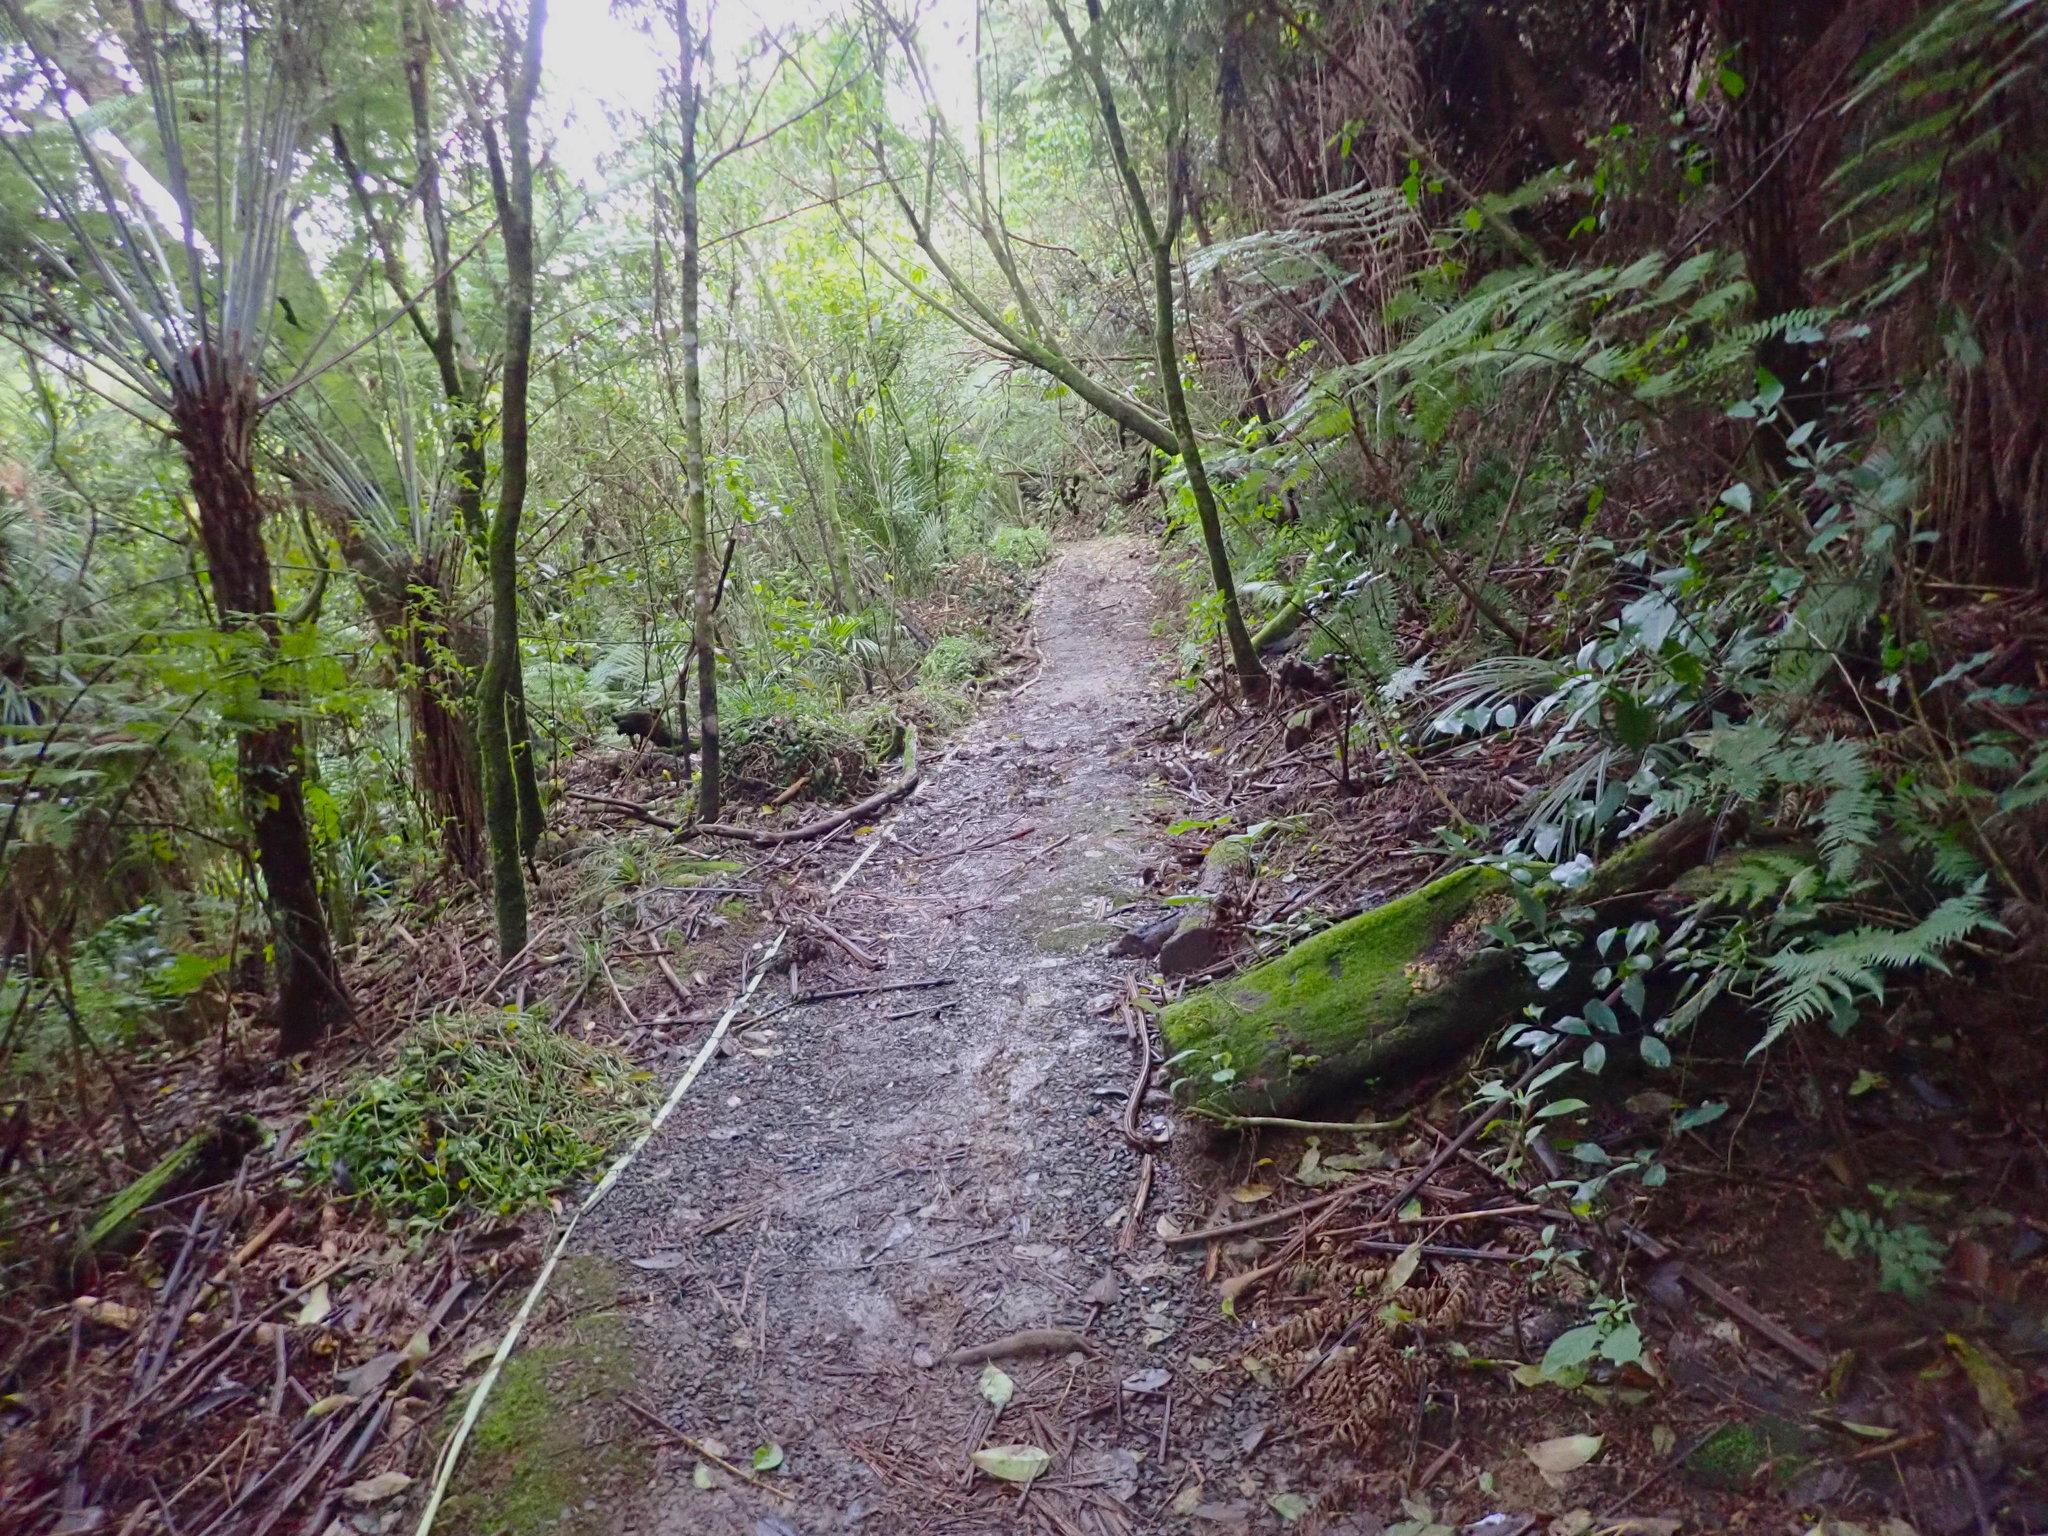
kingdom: Plantae
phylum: Tracheophyta
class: Liliopsida
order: Commelinales
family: Commelinaceae
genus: Tradescantia
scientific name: Tradescantia fluminensis
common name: Wandering-jew
